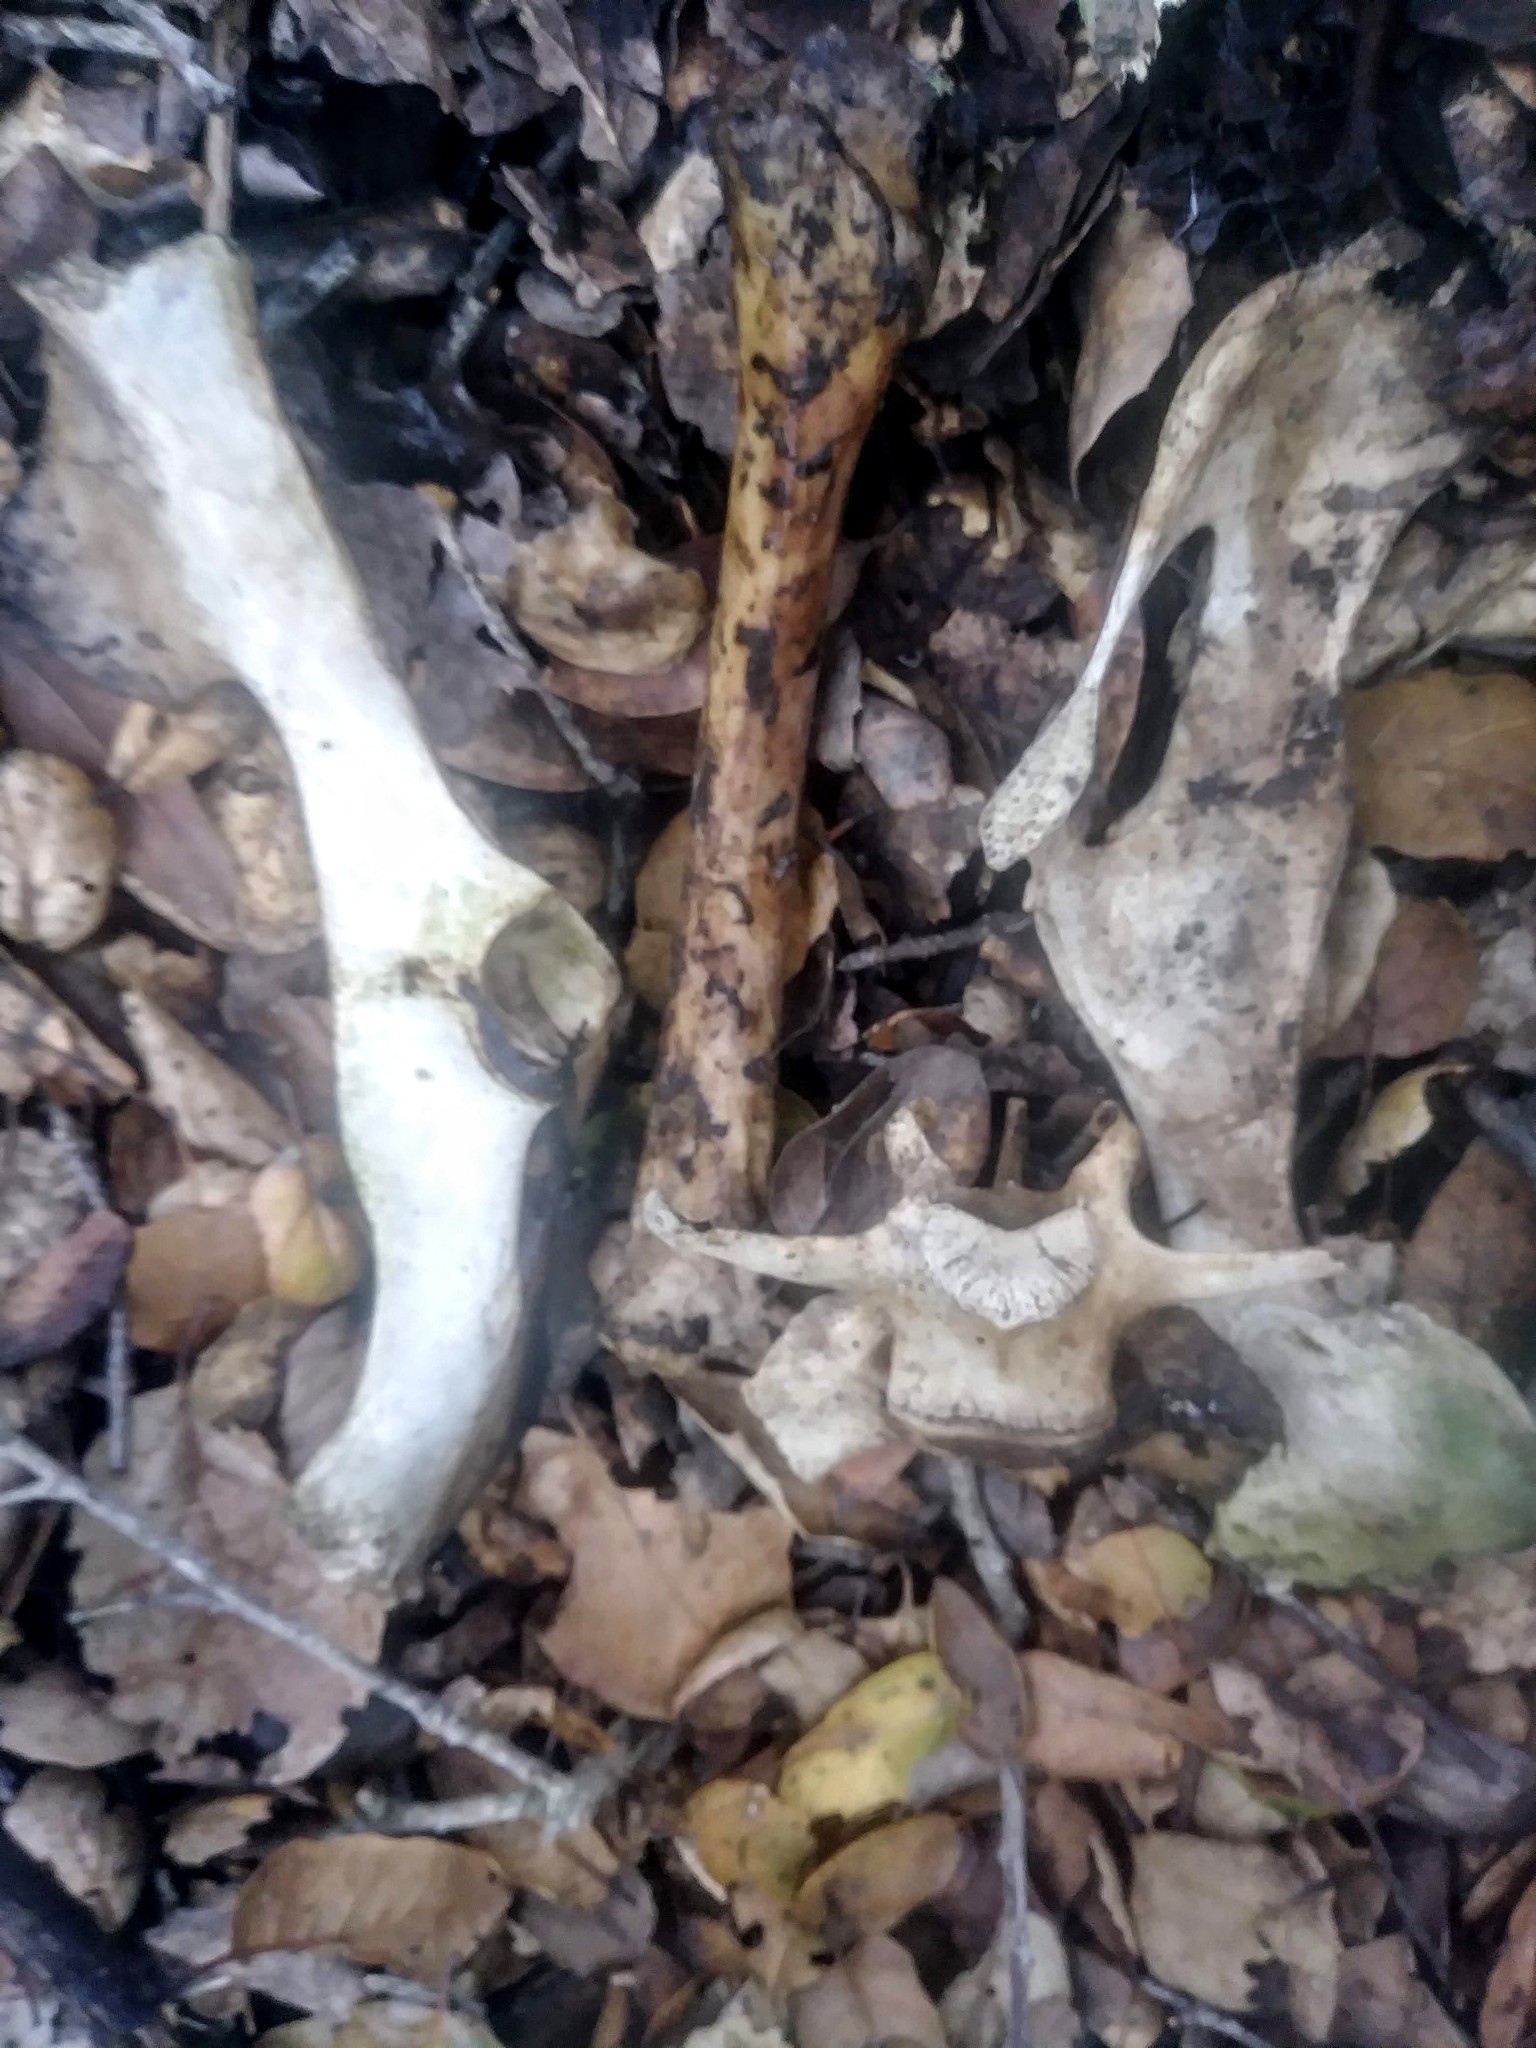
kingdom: Animalia
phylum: Chordata
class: Mammalia
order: Artiodactyla
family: Cervidae
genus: Odocoileus
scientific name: Odocoileus hemionus
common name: Mule deer
